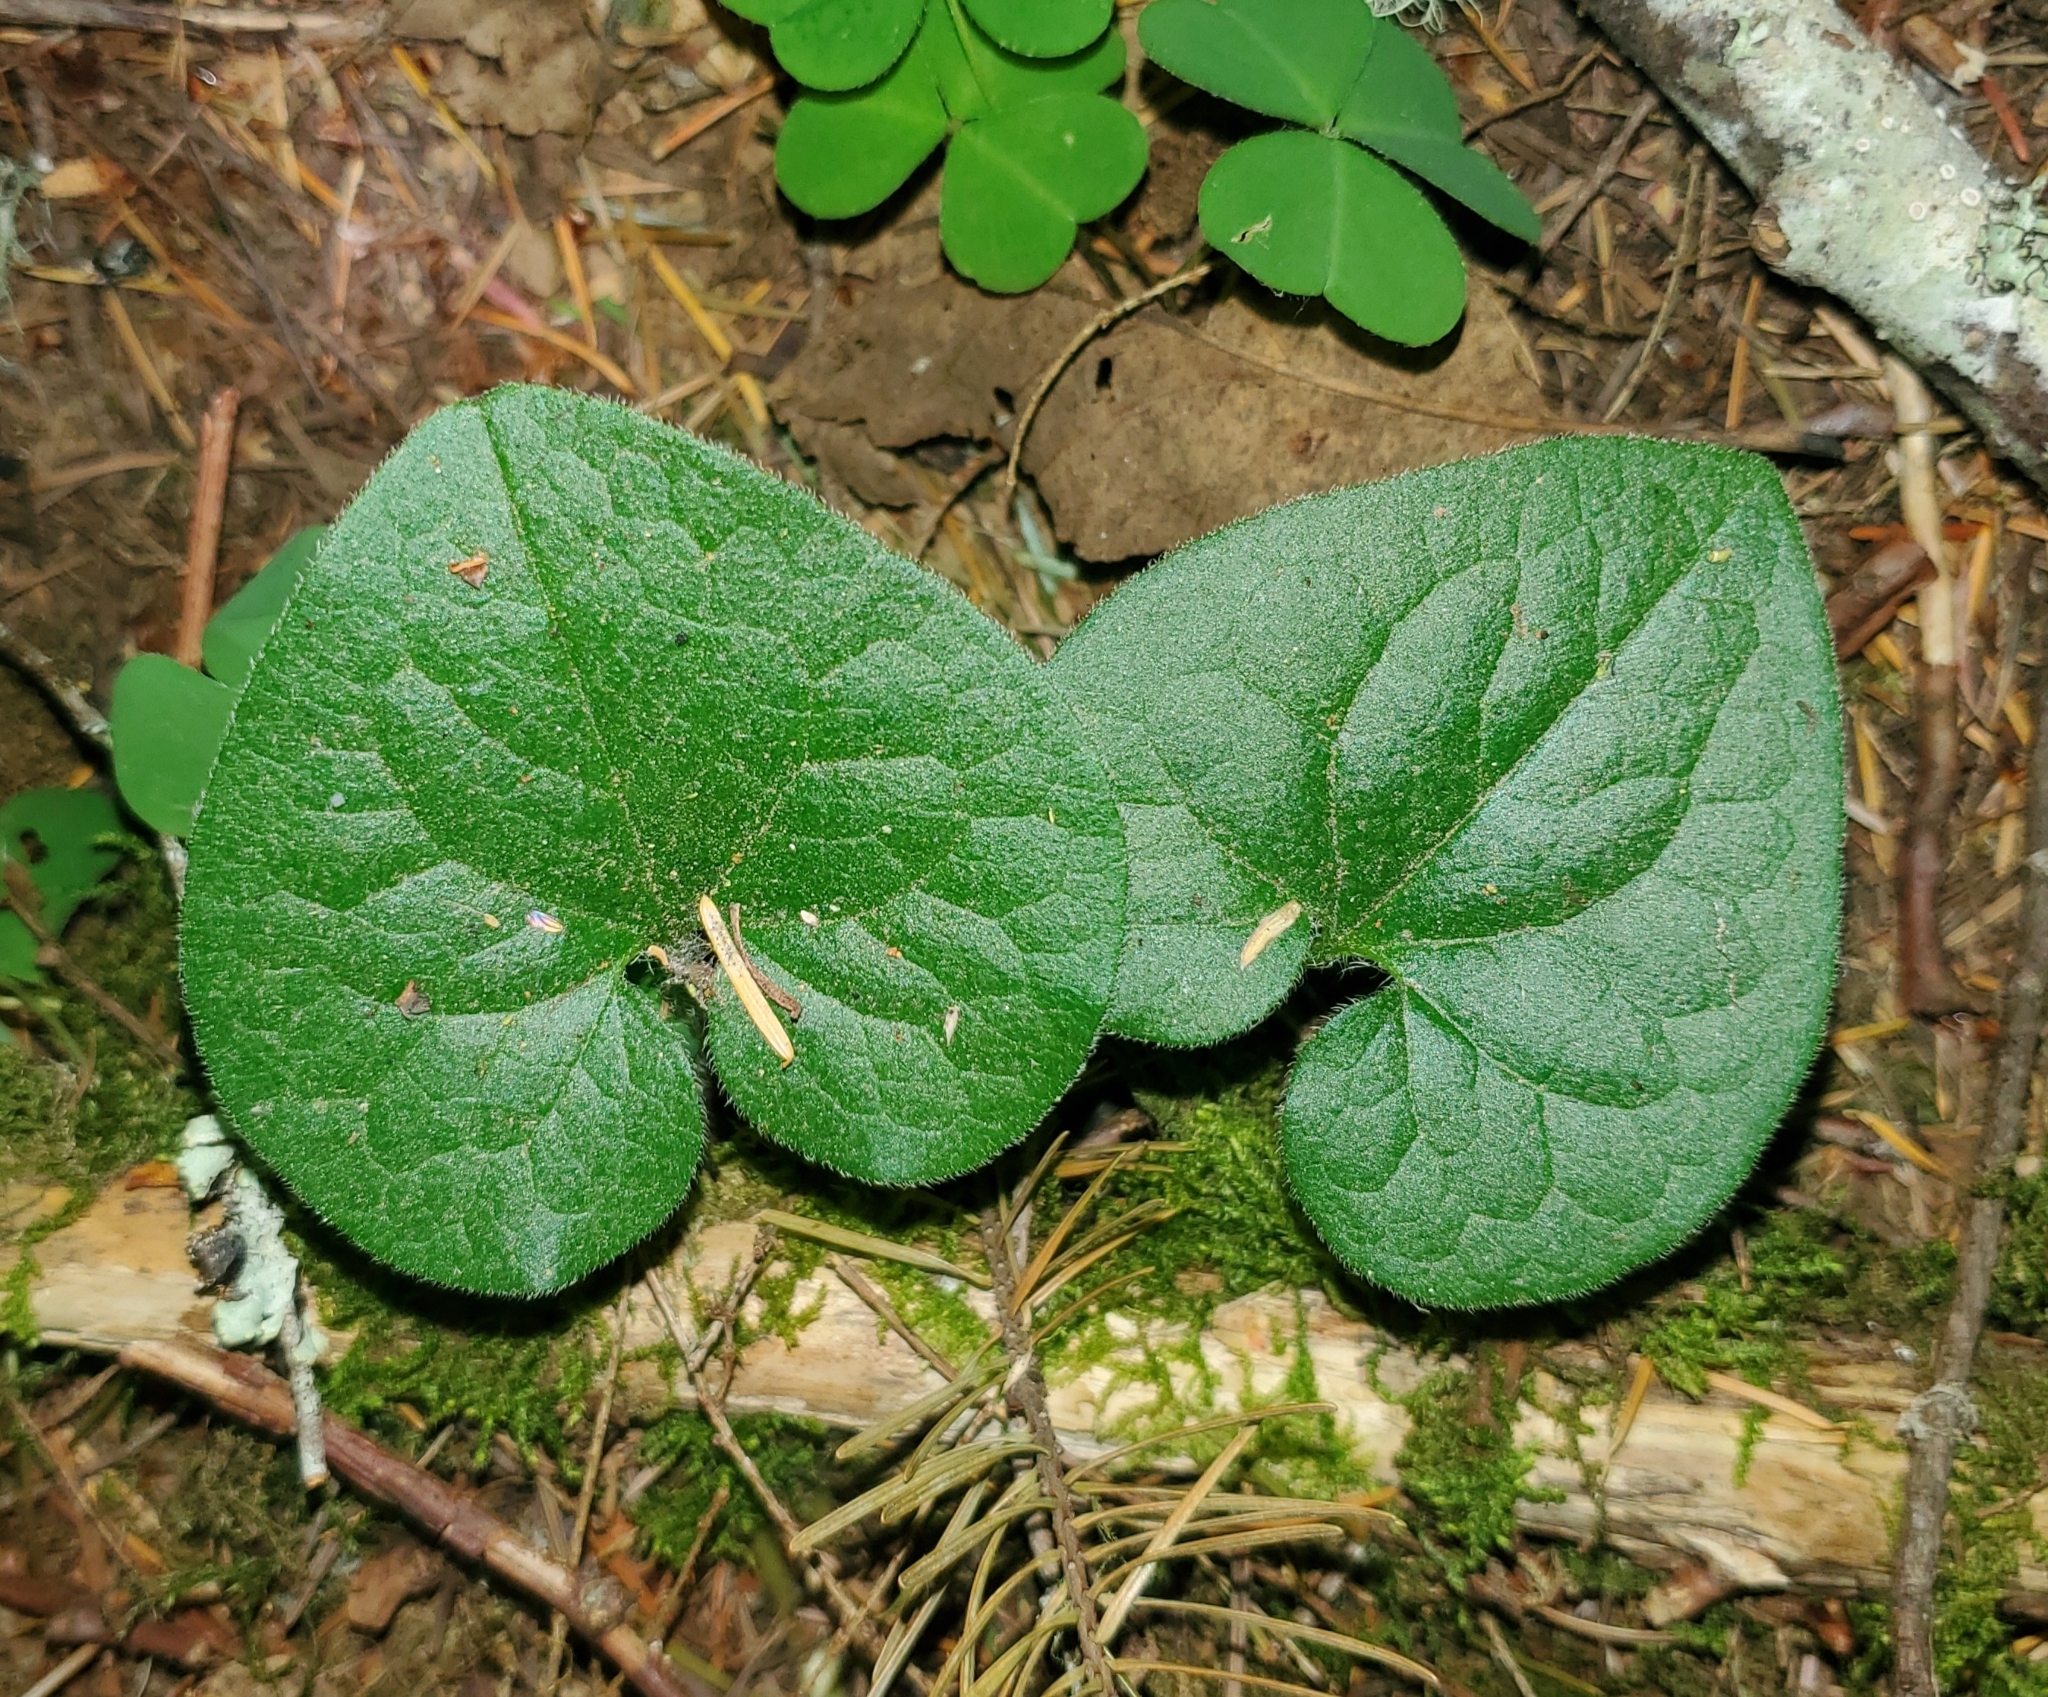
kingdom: Plantae
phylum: Tracheophyta
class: Magnoliopsida
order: Piperales
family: Aristolochiaceae
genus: Asarum
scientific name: Asarum caudatum
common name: Wild ginger
